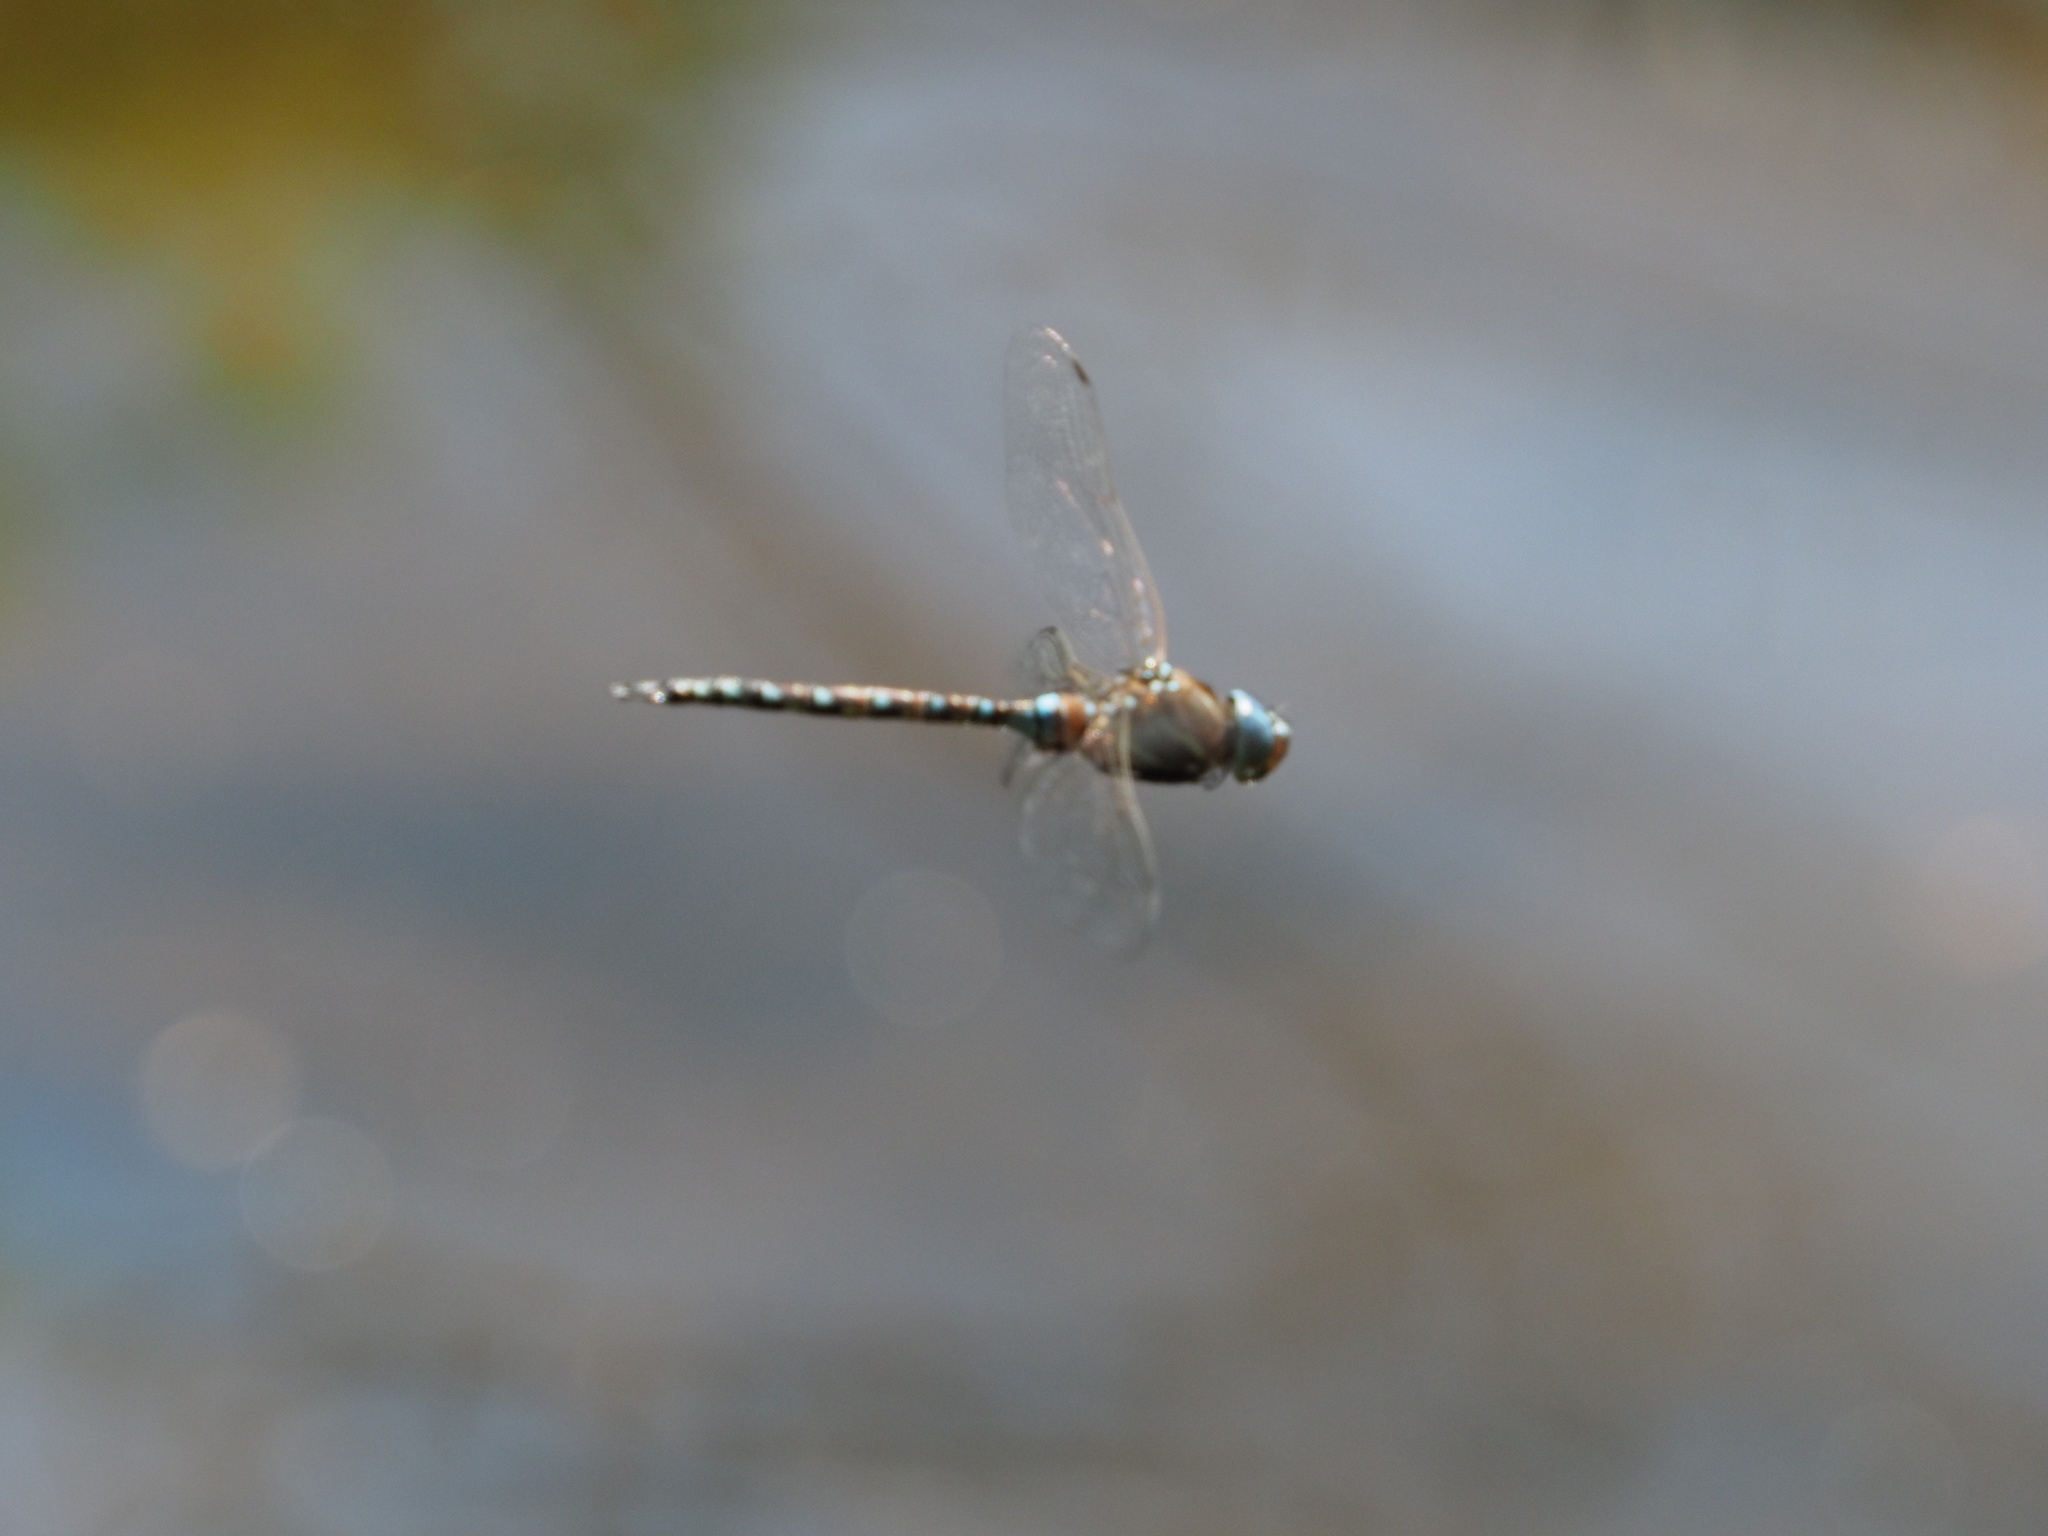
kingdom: Animalia
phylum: Arthropoda
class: Insecta
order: Odonata
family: Aeshnidae
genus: Rhionaeschna
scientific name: Rhionaeschna multicolor
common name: Blue-eyed darner
